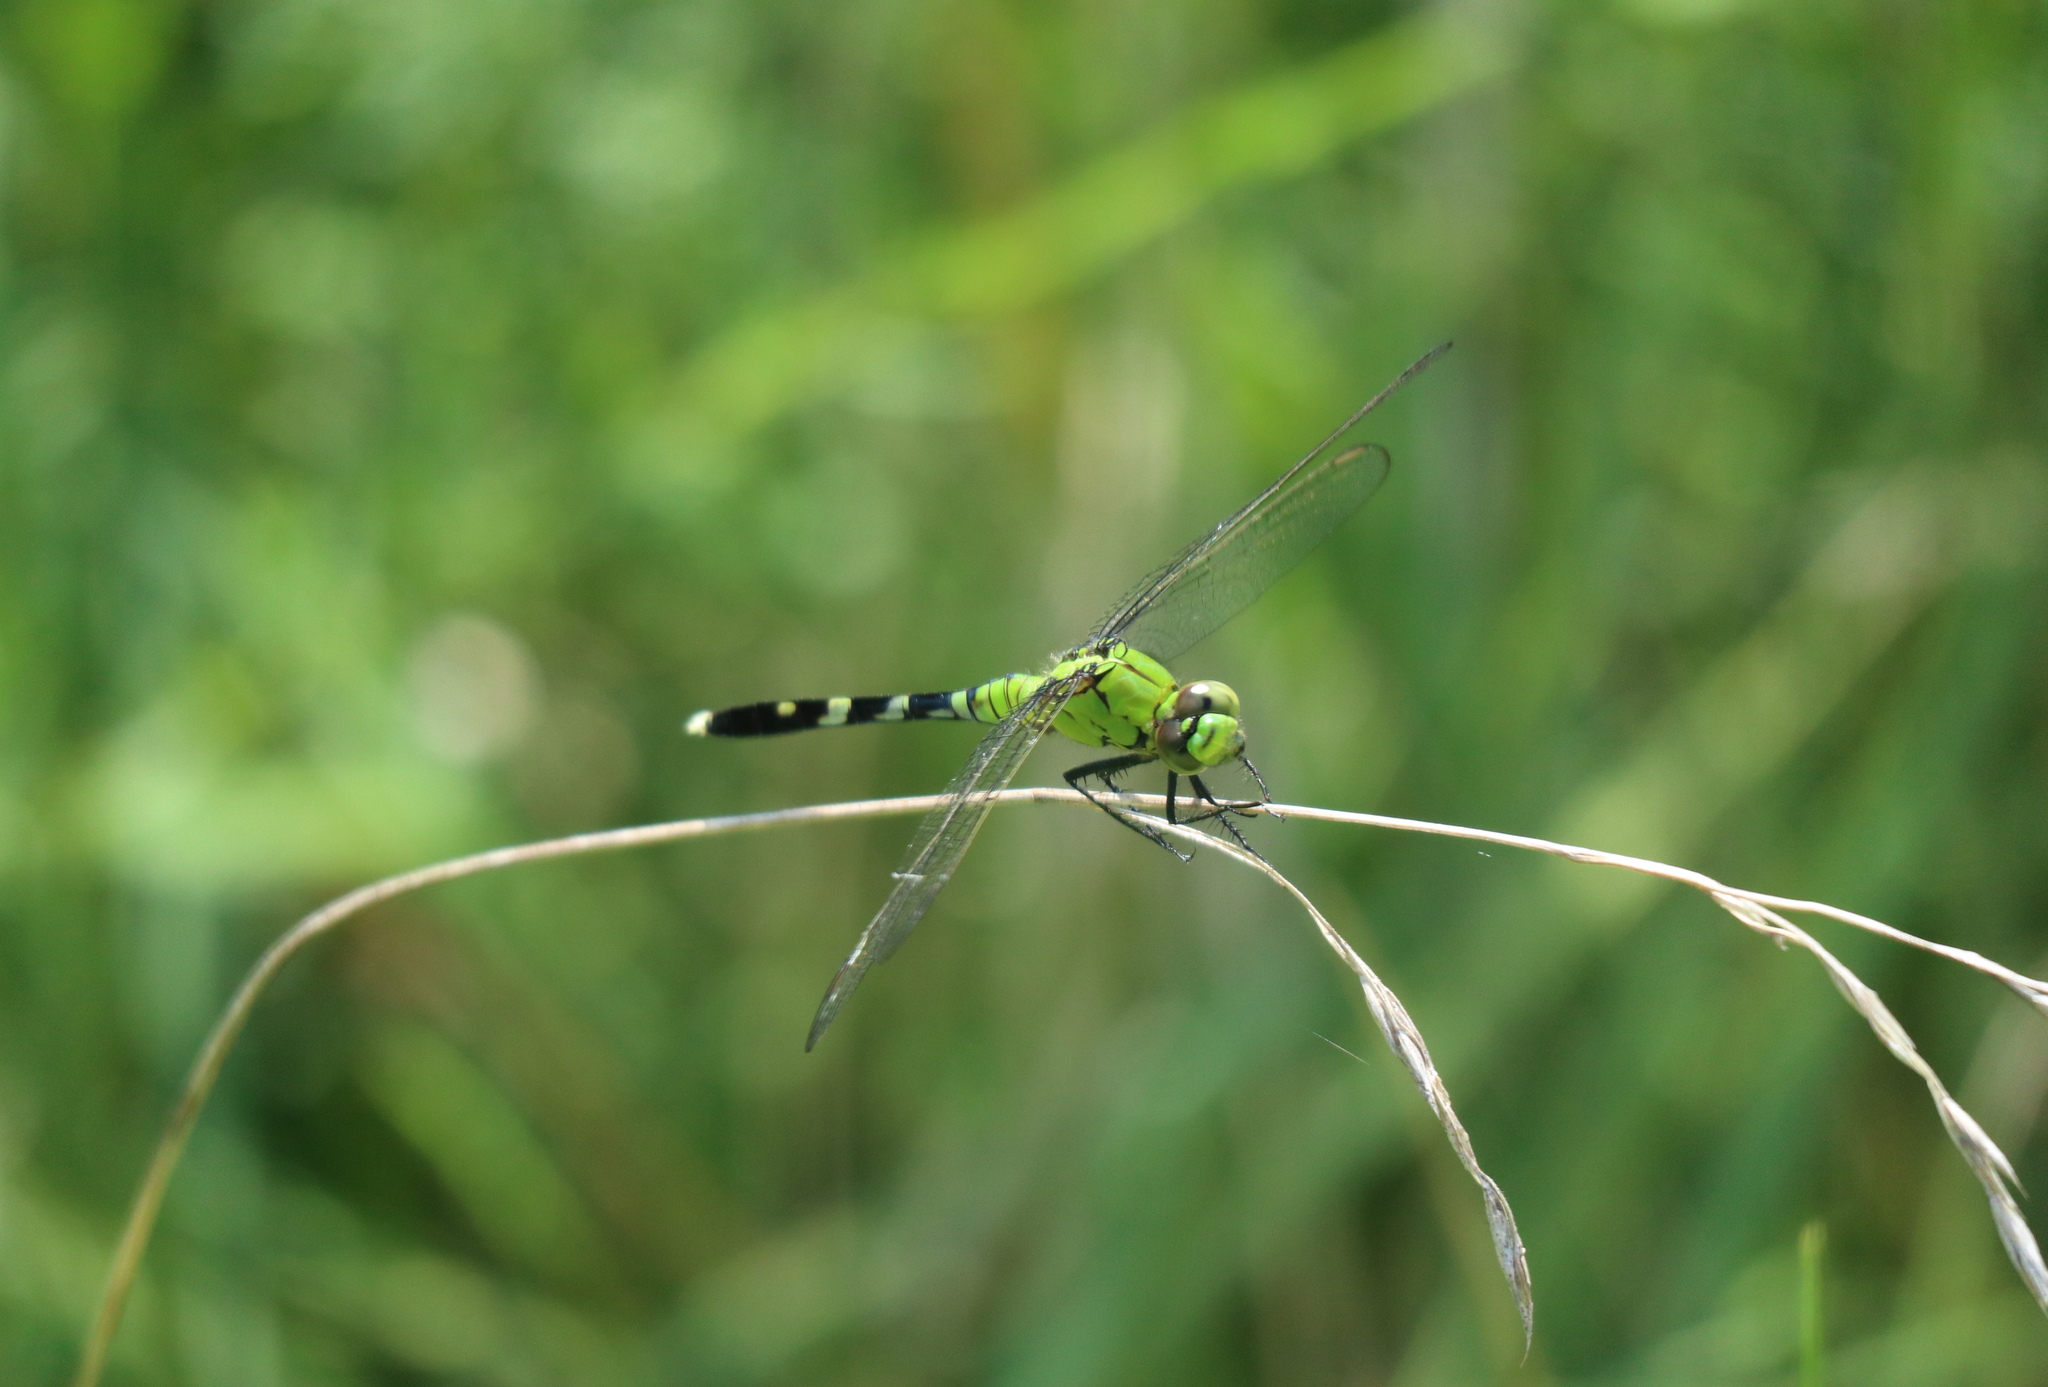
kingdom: Animalia
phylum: Arthropoda
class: Insecta
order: Odonata
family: Libellulidae
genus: Erythemis
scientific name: Erythemis simplicicollis
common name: Eastern pondhawk
